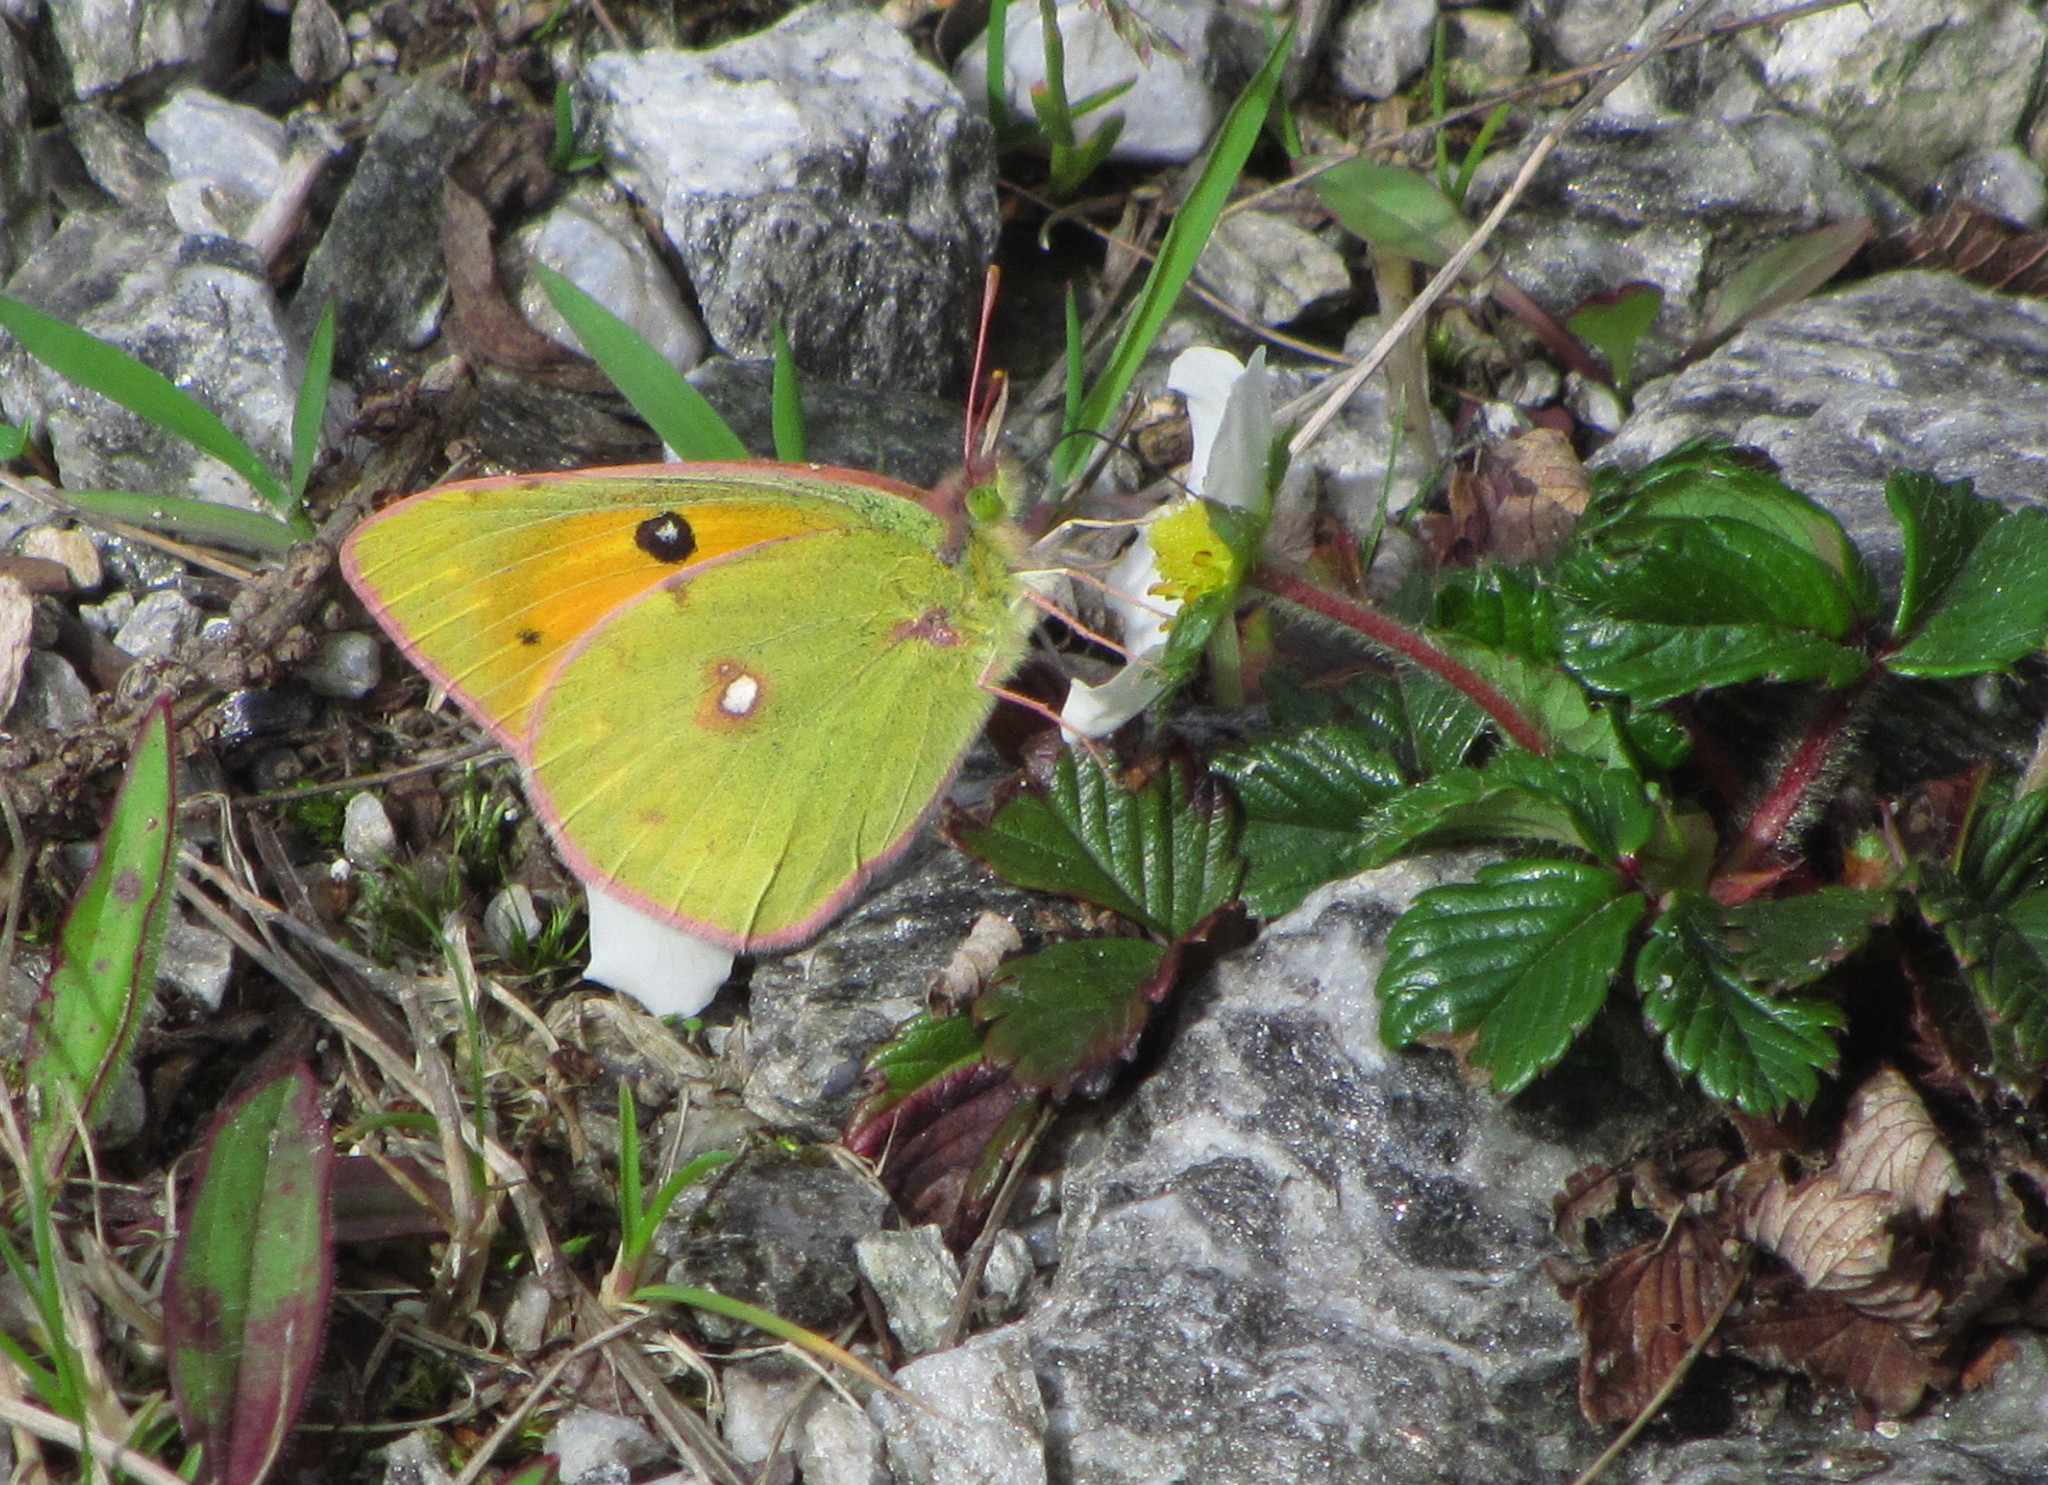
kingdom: Animalia
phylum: Arthropoda
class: Insecta
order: Lepidoptera
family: Pieridae
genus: Colias
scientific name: Colias fieldii
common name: Dark clouded yellow
